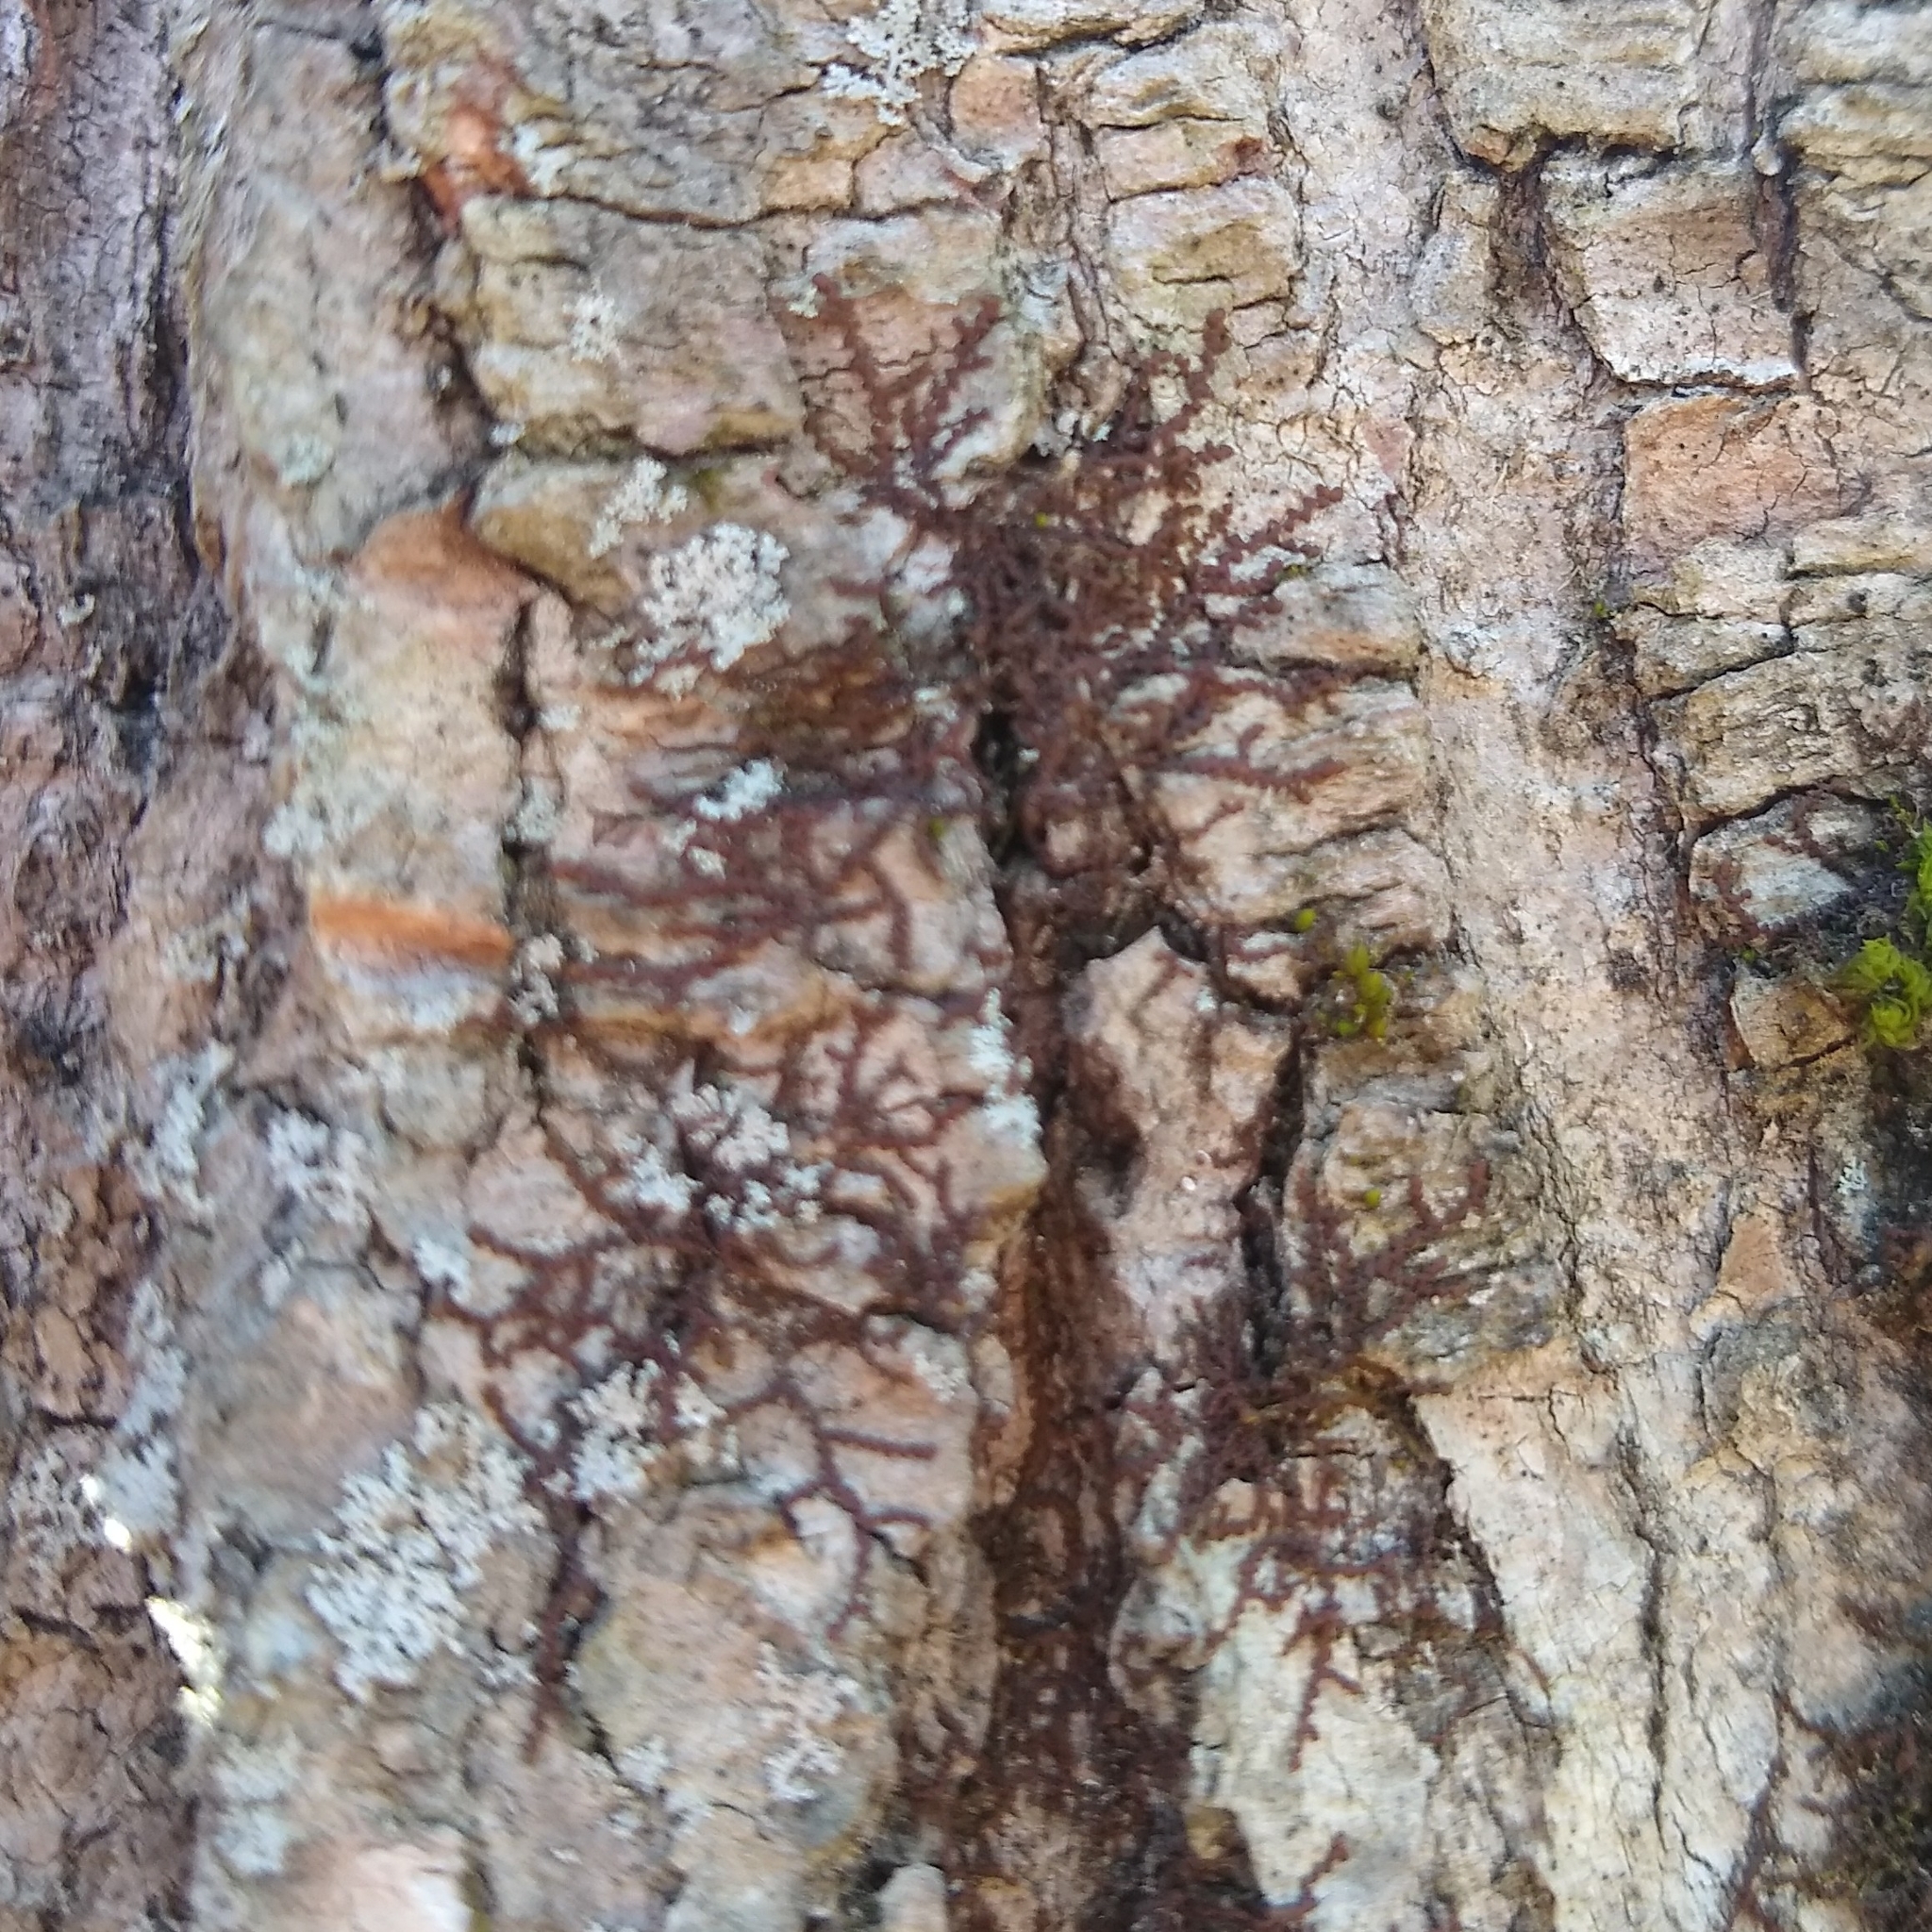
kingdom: Plantae
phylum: Marchantiophyta
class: Jungermanniopsida
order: Porellales
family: Frullaniaceae
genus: Frullania
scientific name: Frullania eboracensis
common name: New york scalewort
